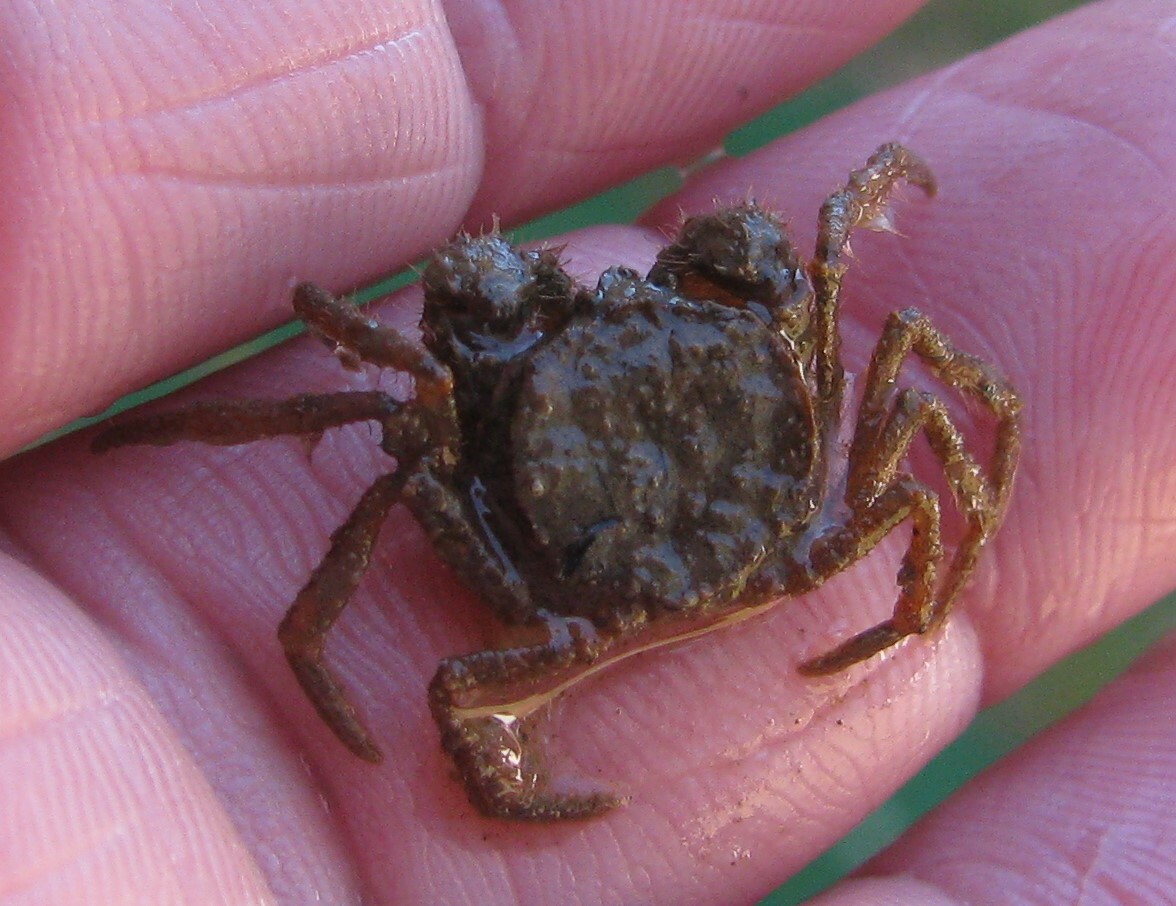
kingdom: Animalia
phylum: Arthropoda
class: Malacostraca
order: Decapoda
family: Hymenosomatidae
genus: Amarinus
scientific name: Amarinus lacustris
